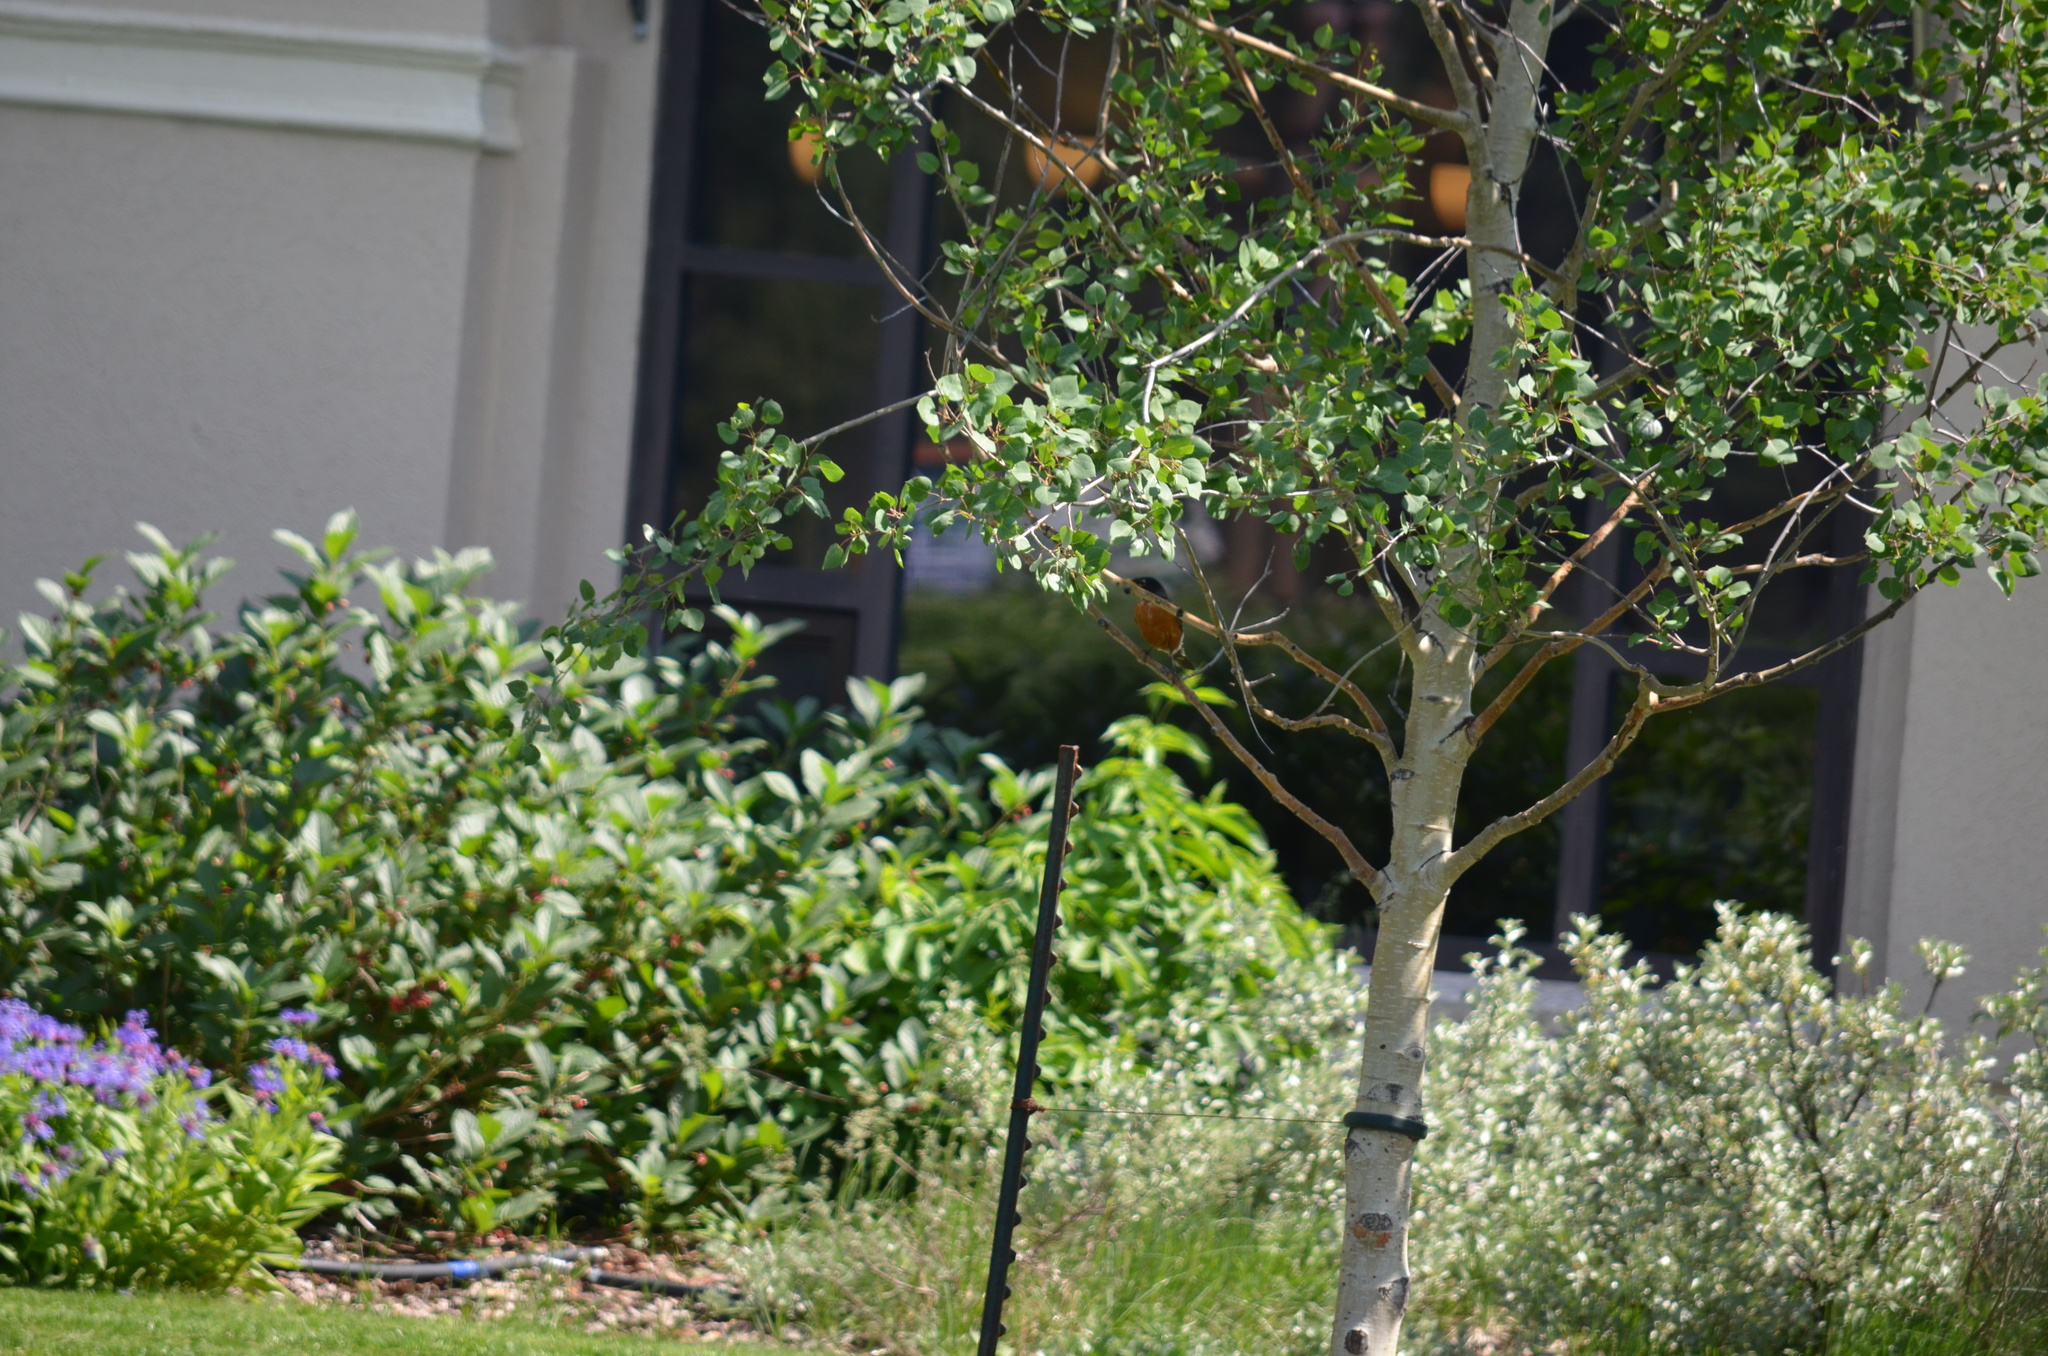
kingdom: Animalia
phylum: Chordata
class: Aves
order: Passeriformes
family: Turdidae
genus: Turdus
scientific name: Turdus migratorius
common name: American robin
